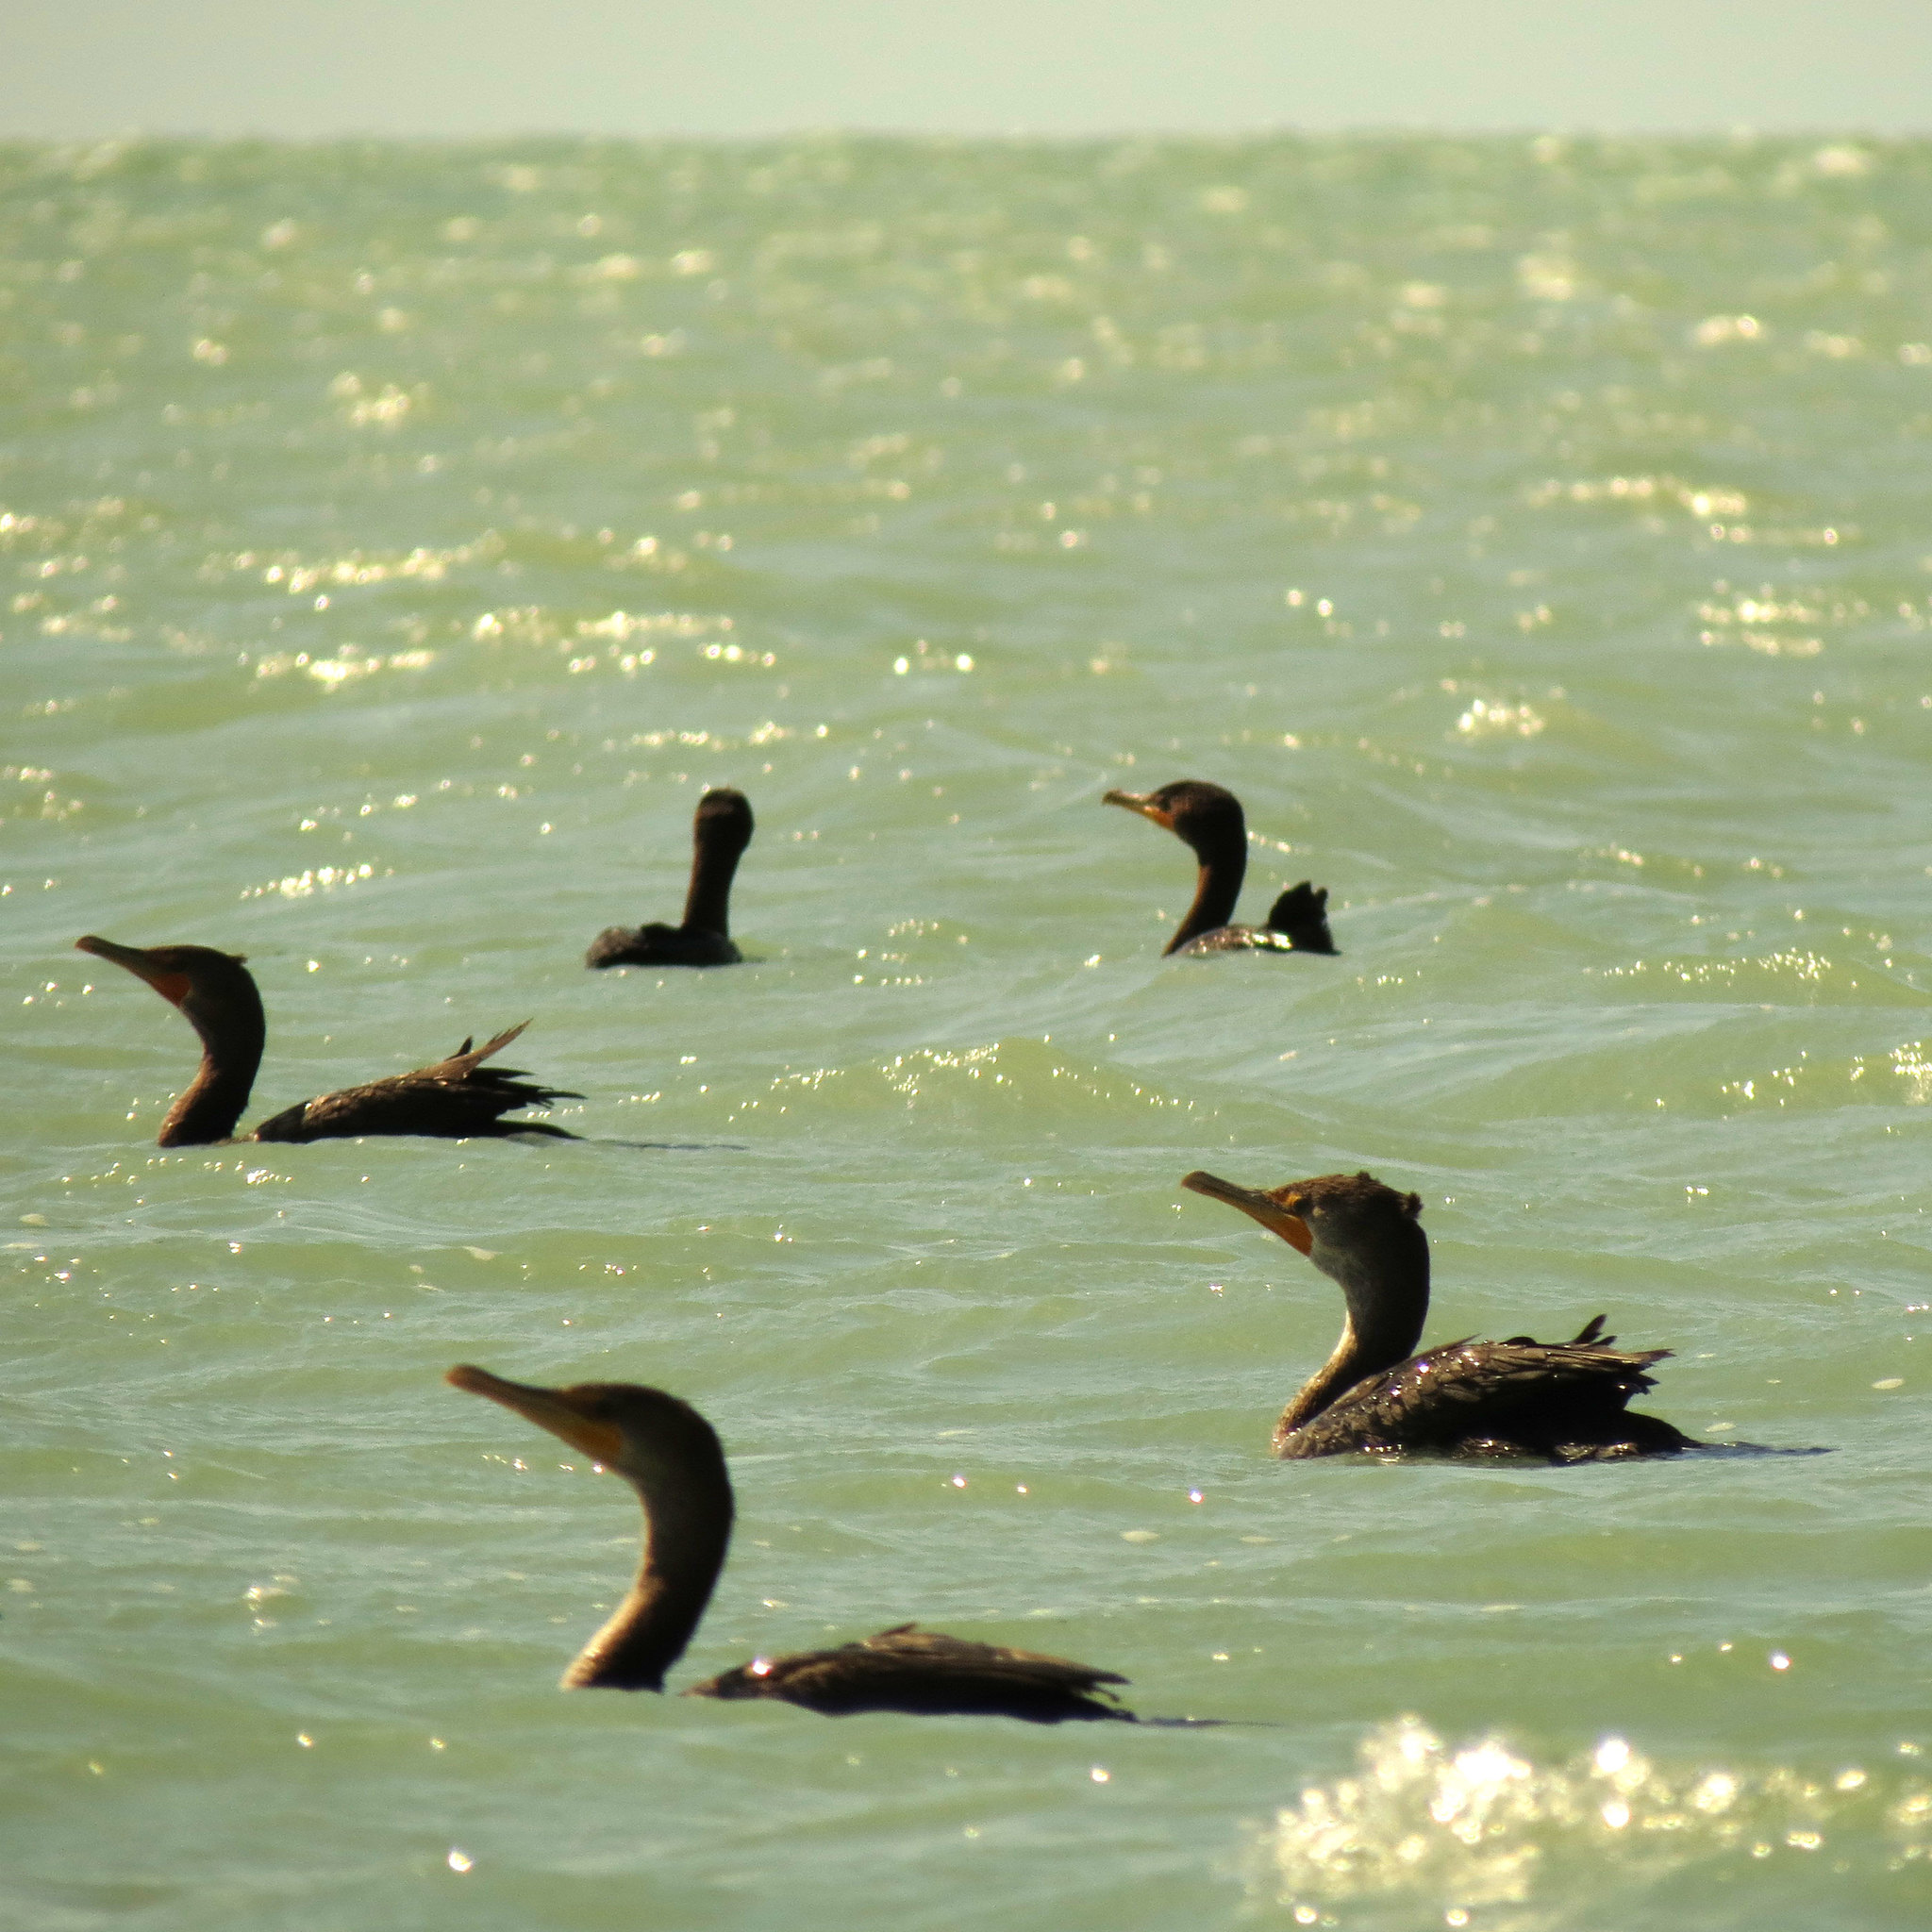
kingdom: Animalia
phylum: Chordata
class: Aves
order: Suliformes
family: Phalacrocoracidae
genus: Phalacrocorax
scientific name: Phalacrocorax auritus
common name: Double-crested cormorant
